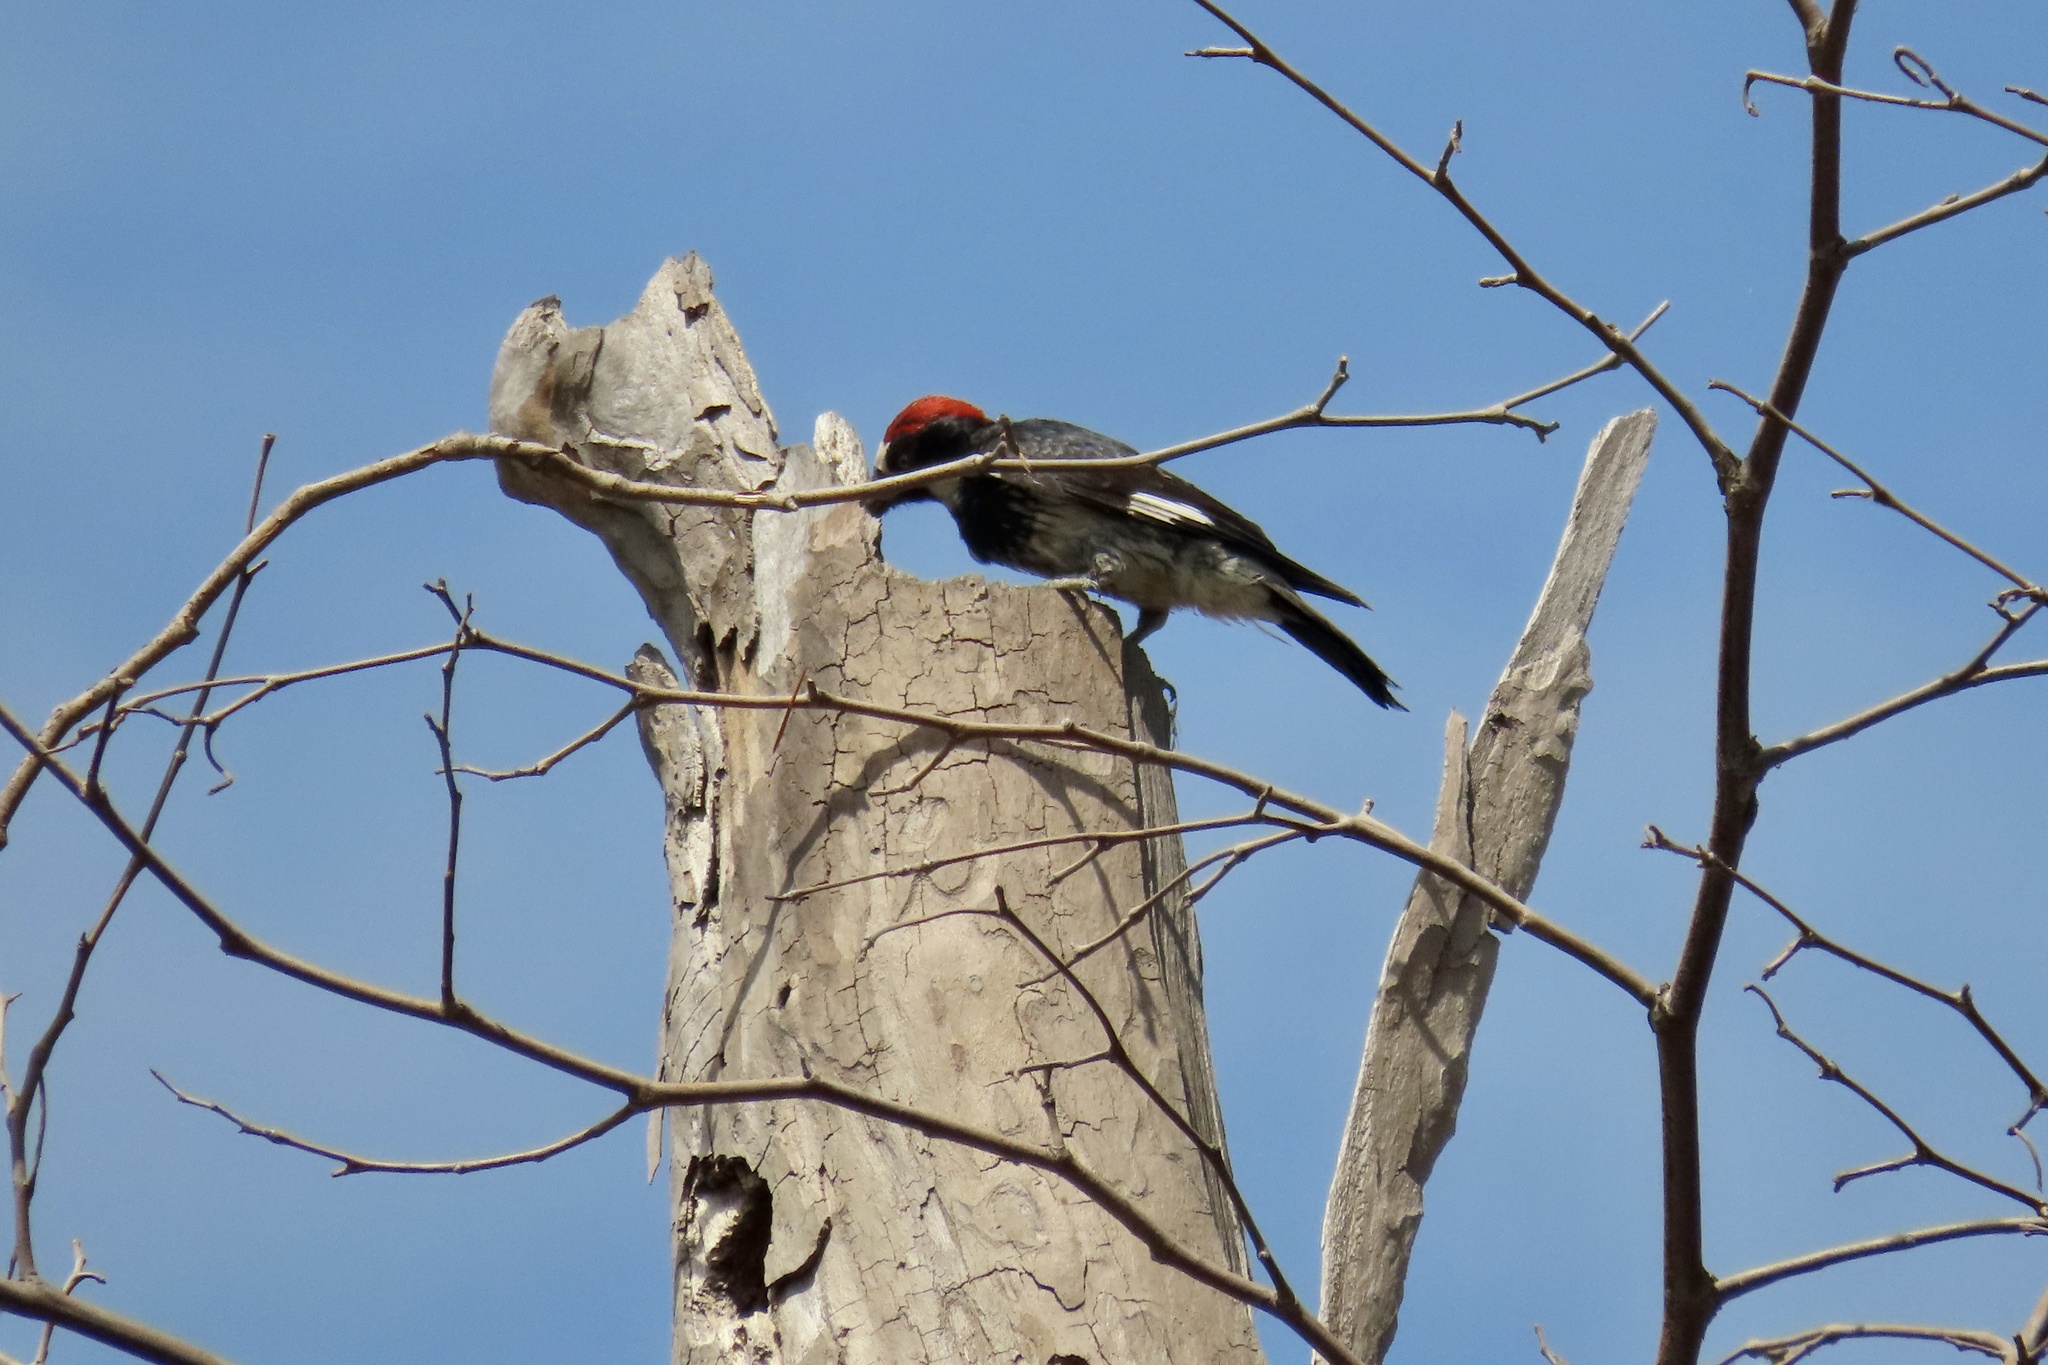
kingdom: Animalia
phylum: Chordata
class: Aves
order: Piciformes
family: Picidae
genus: Melanerpes
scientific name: Melanerpes formicivorus
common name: Acorn woodpecker
